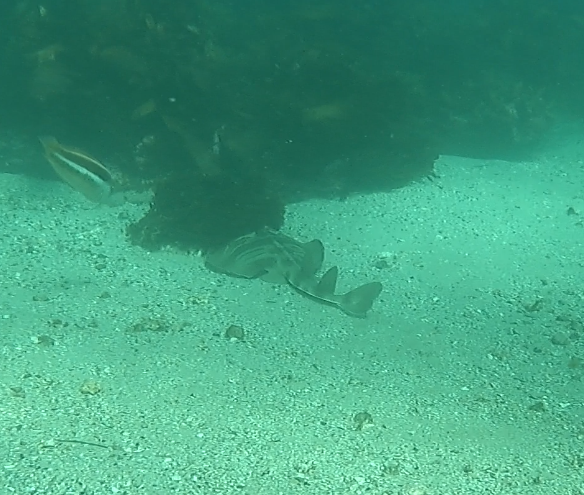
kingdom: Animalia
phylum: Chordata
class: Elasmobranchii
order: Rhinopristiformes
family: Rhinobatidae
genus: Trygonorrhina
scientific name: Trygonorrhina fasciata
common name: Southern fiddler
